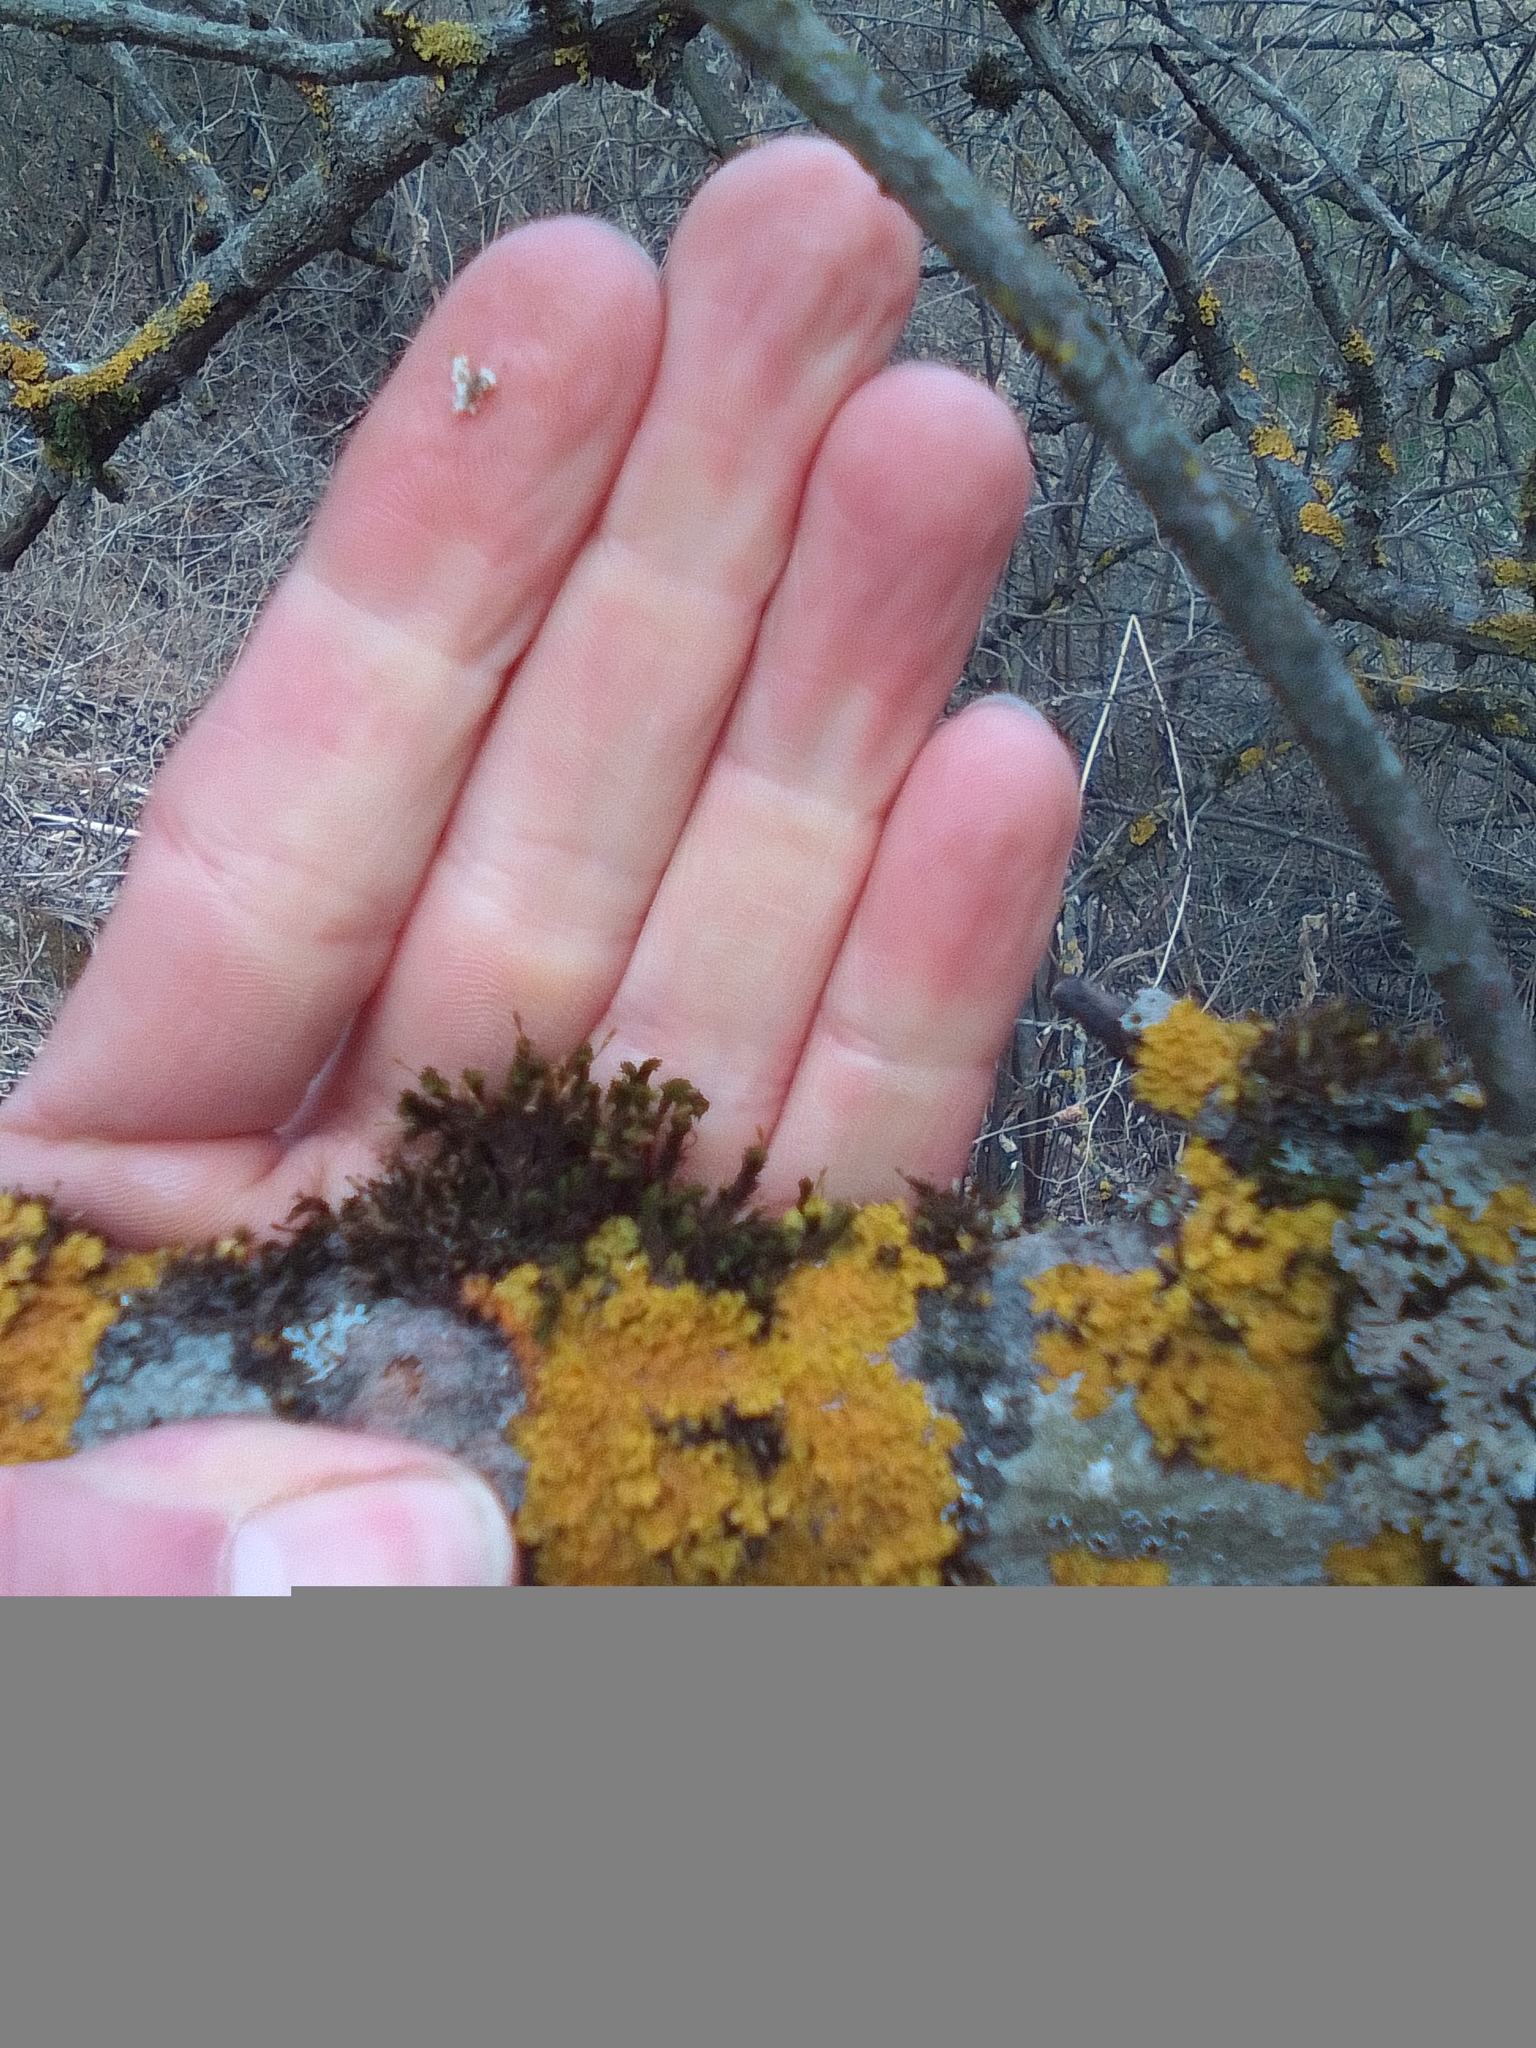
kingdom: Fungi
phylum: Ascomycota
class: Lecanoromycetes
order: Teloschistales
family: Teloschistaceae
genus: Xanthoria
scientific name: Xanthoria parietina
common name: Common orange lichen
